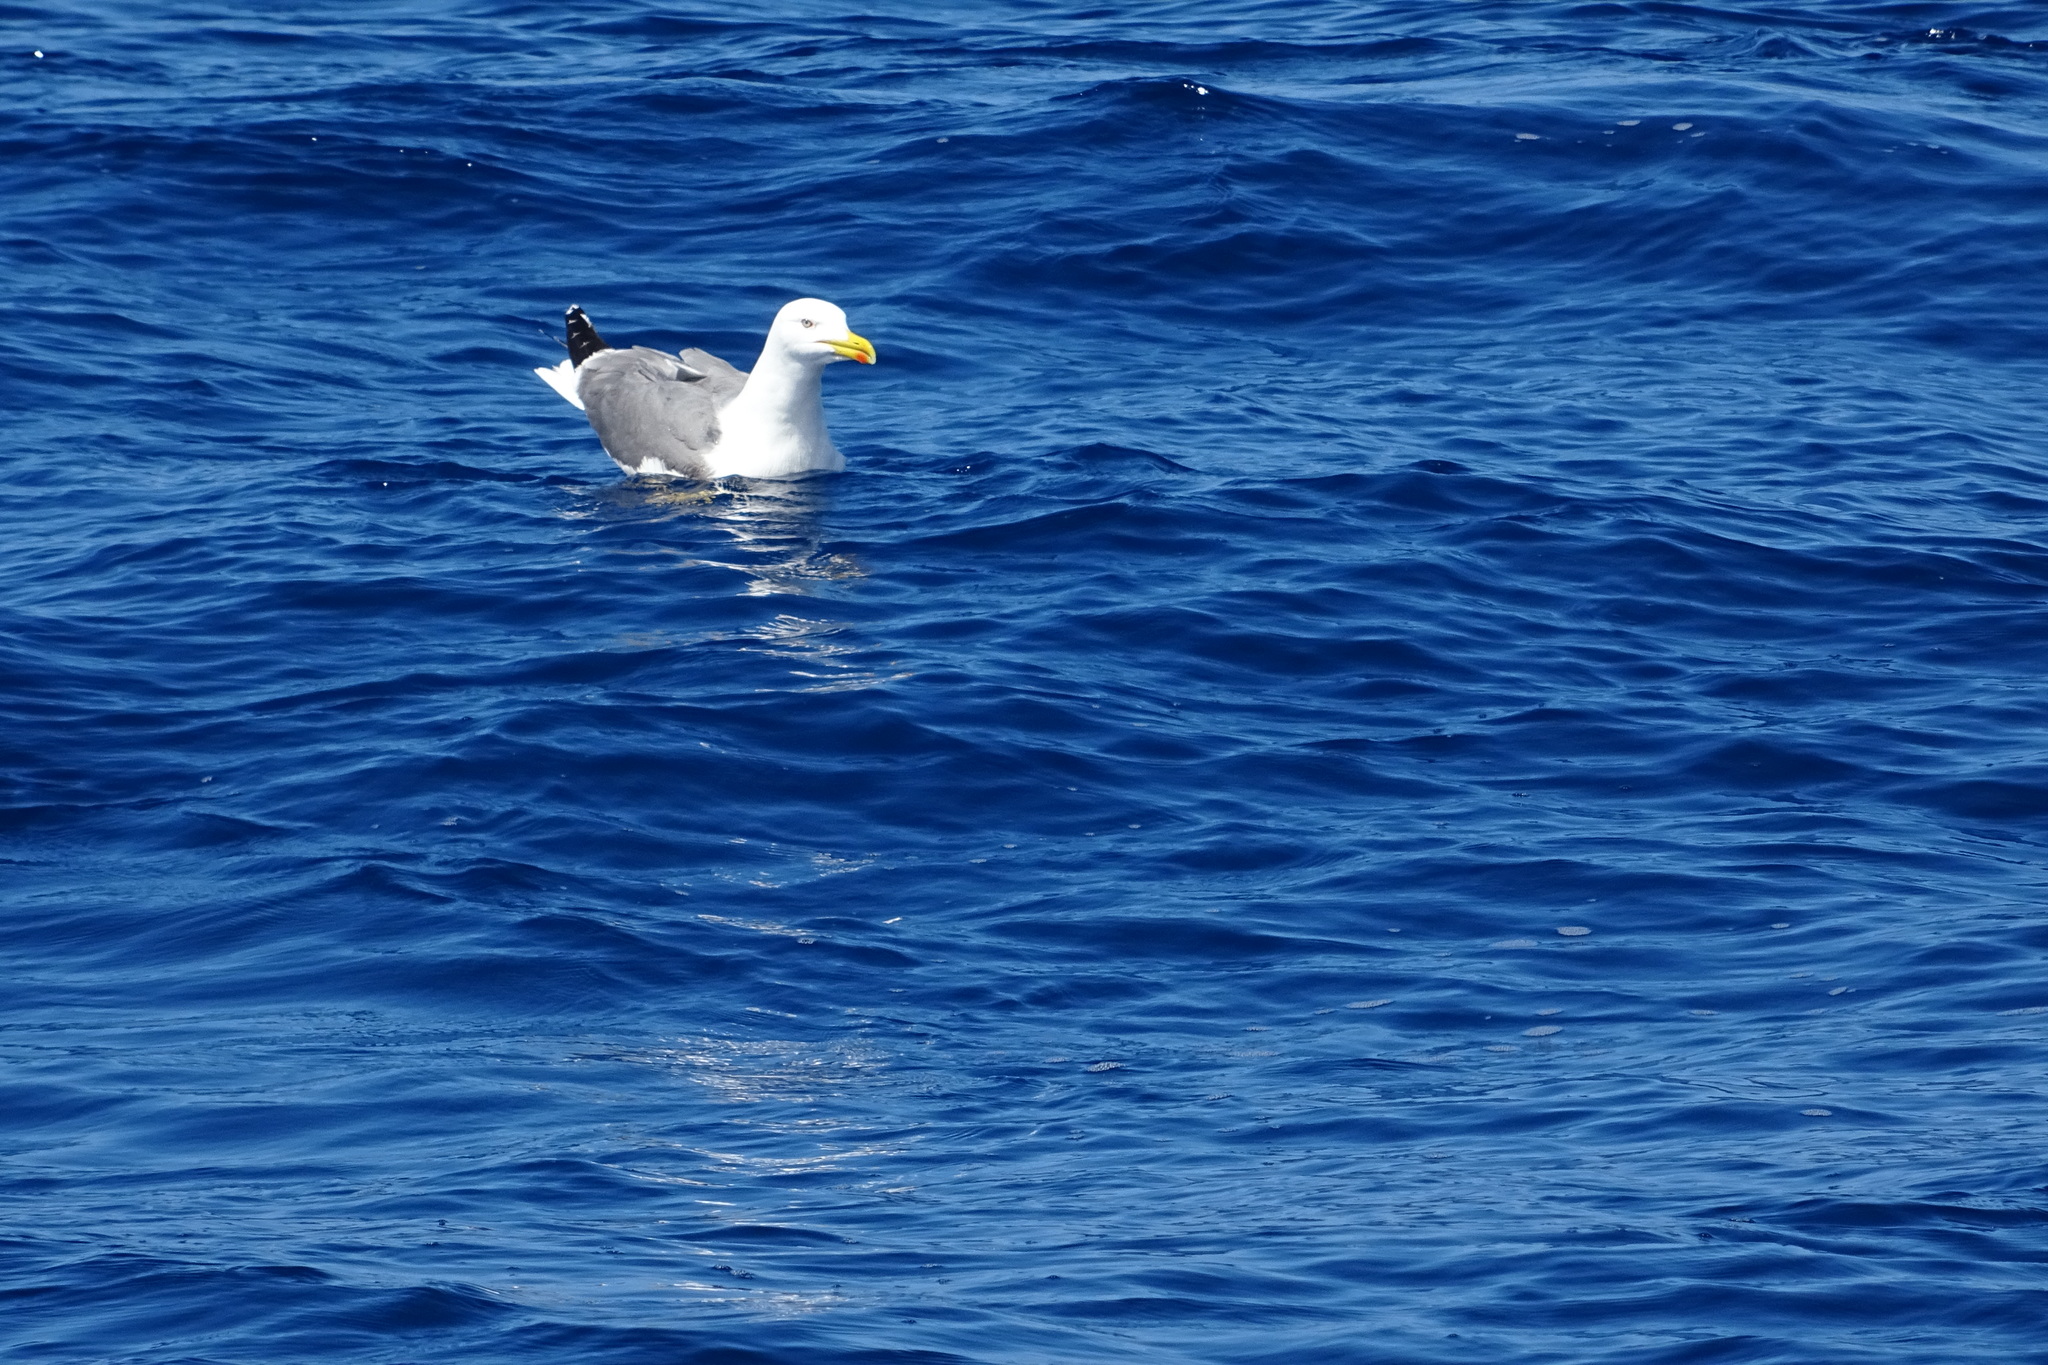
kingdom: Animalia
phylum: Chordata
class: Aves
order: Charadriiformes
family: Laridae
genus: Larus
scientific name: Larus michahellis
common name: Yellow-legged gull
